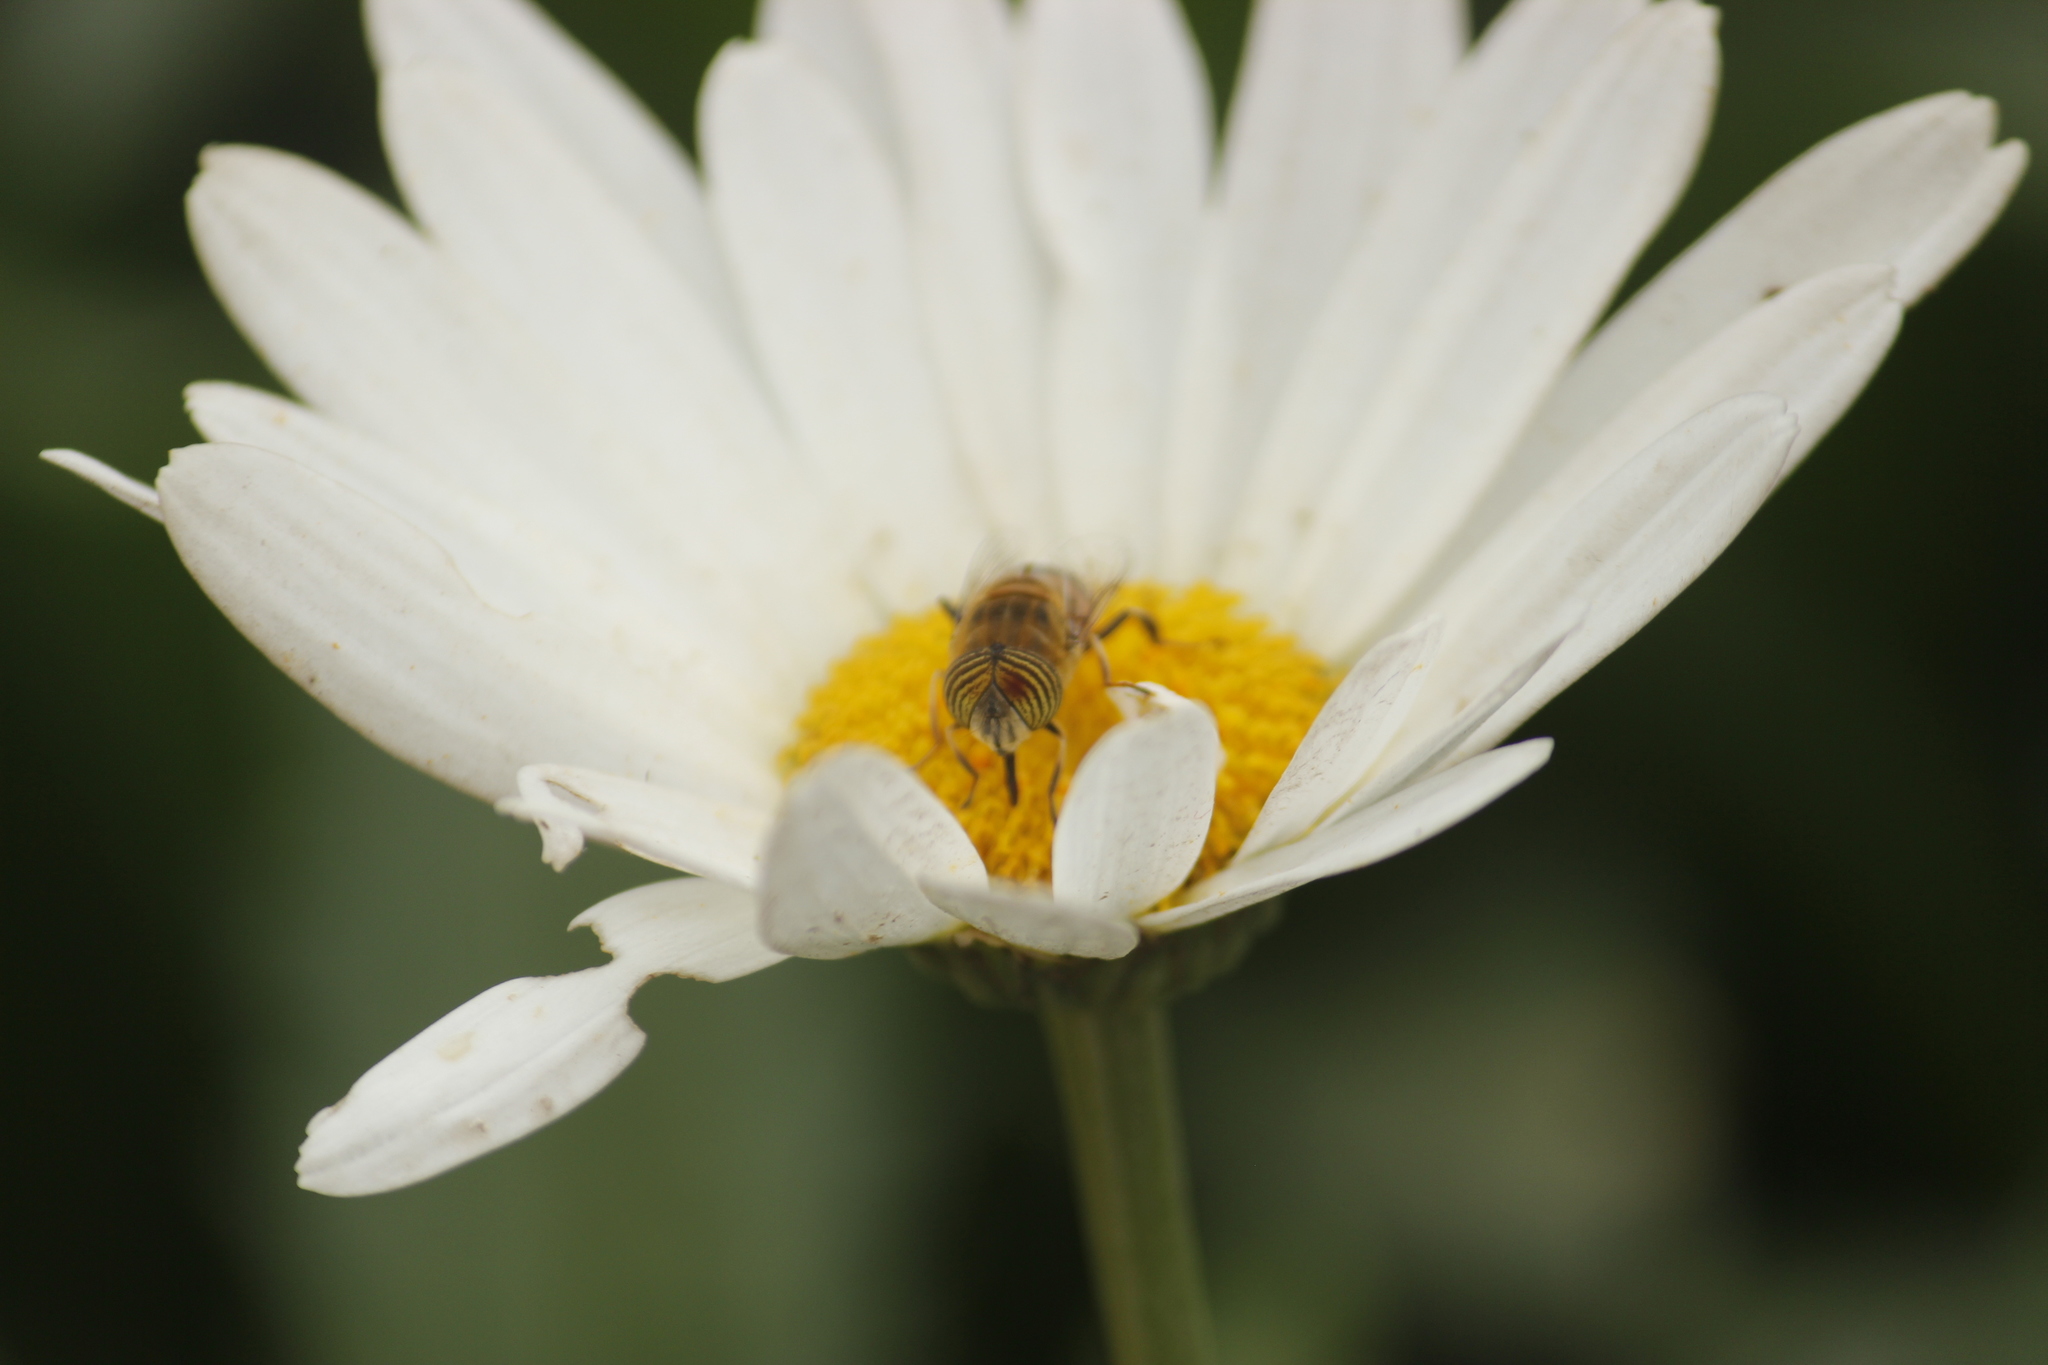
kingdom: Animalia
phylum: Arthropoda
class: Insecta
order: Diptera
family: Syrphidae
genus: Eristalinus
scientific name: Eristalinus taeniops
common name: Syrphid fly
